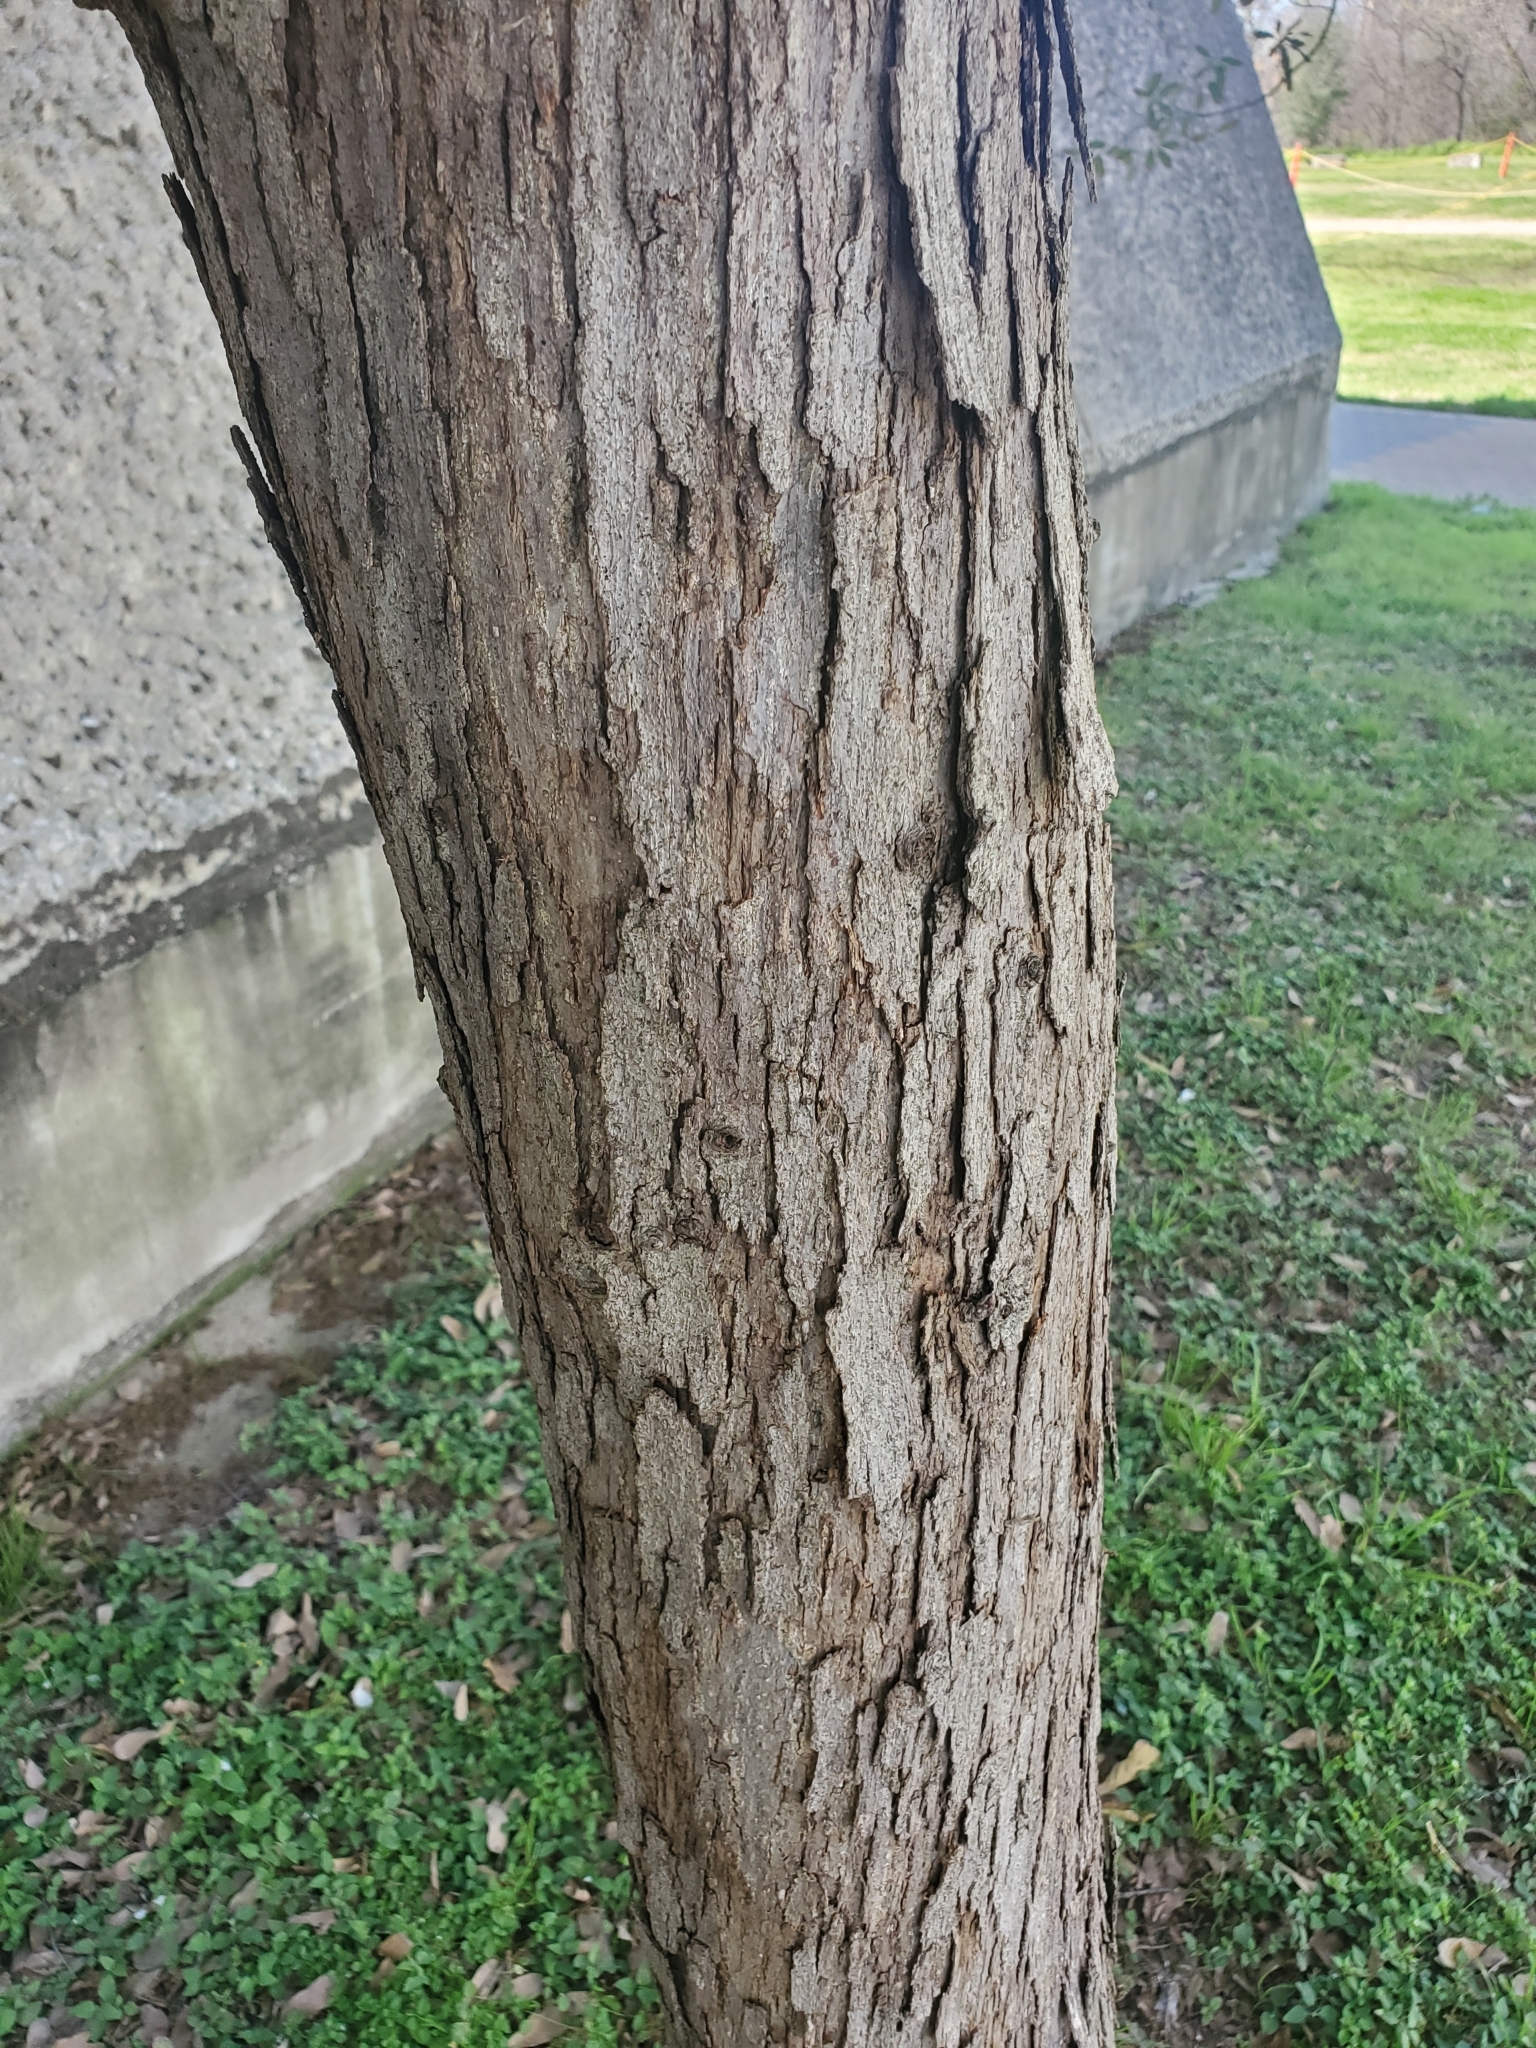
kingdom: Plantae
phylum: Tracheophyta
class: Magnoliopsida
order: Fagales
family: Fagaceae
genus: Quercus
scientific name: Quercus sinuata
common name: Durand oak
